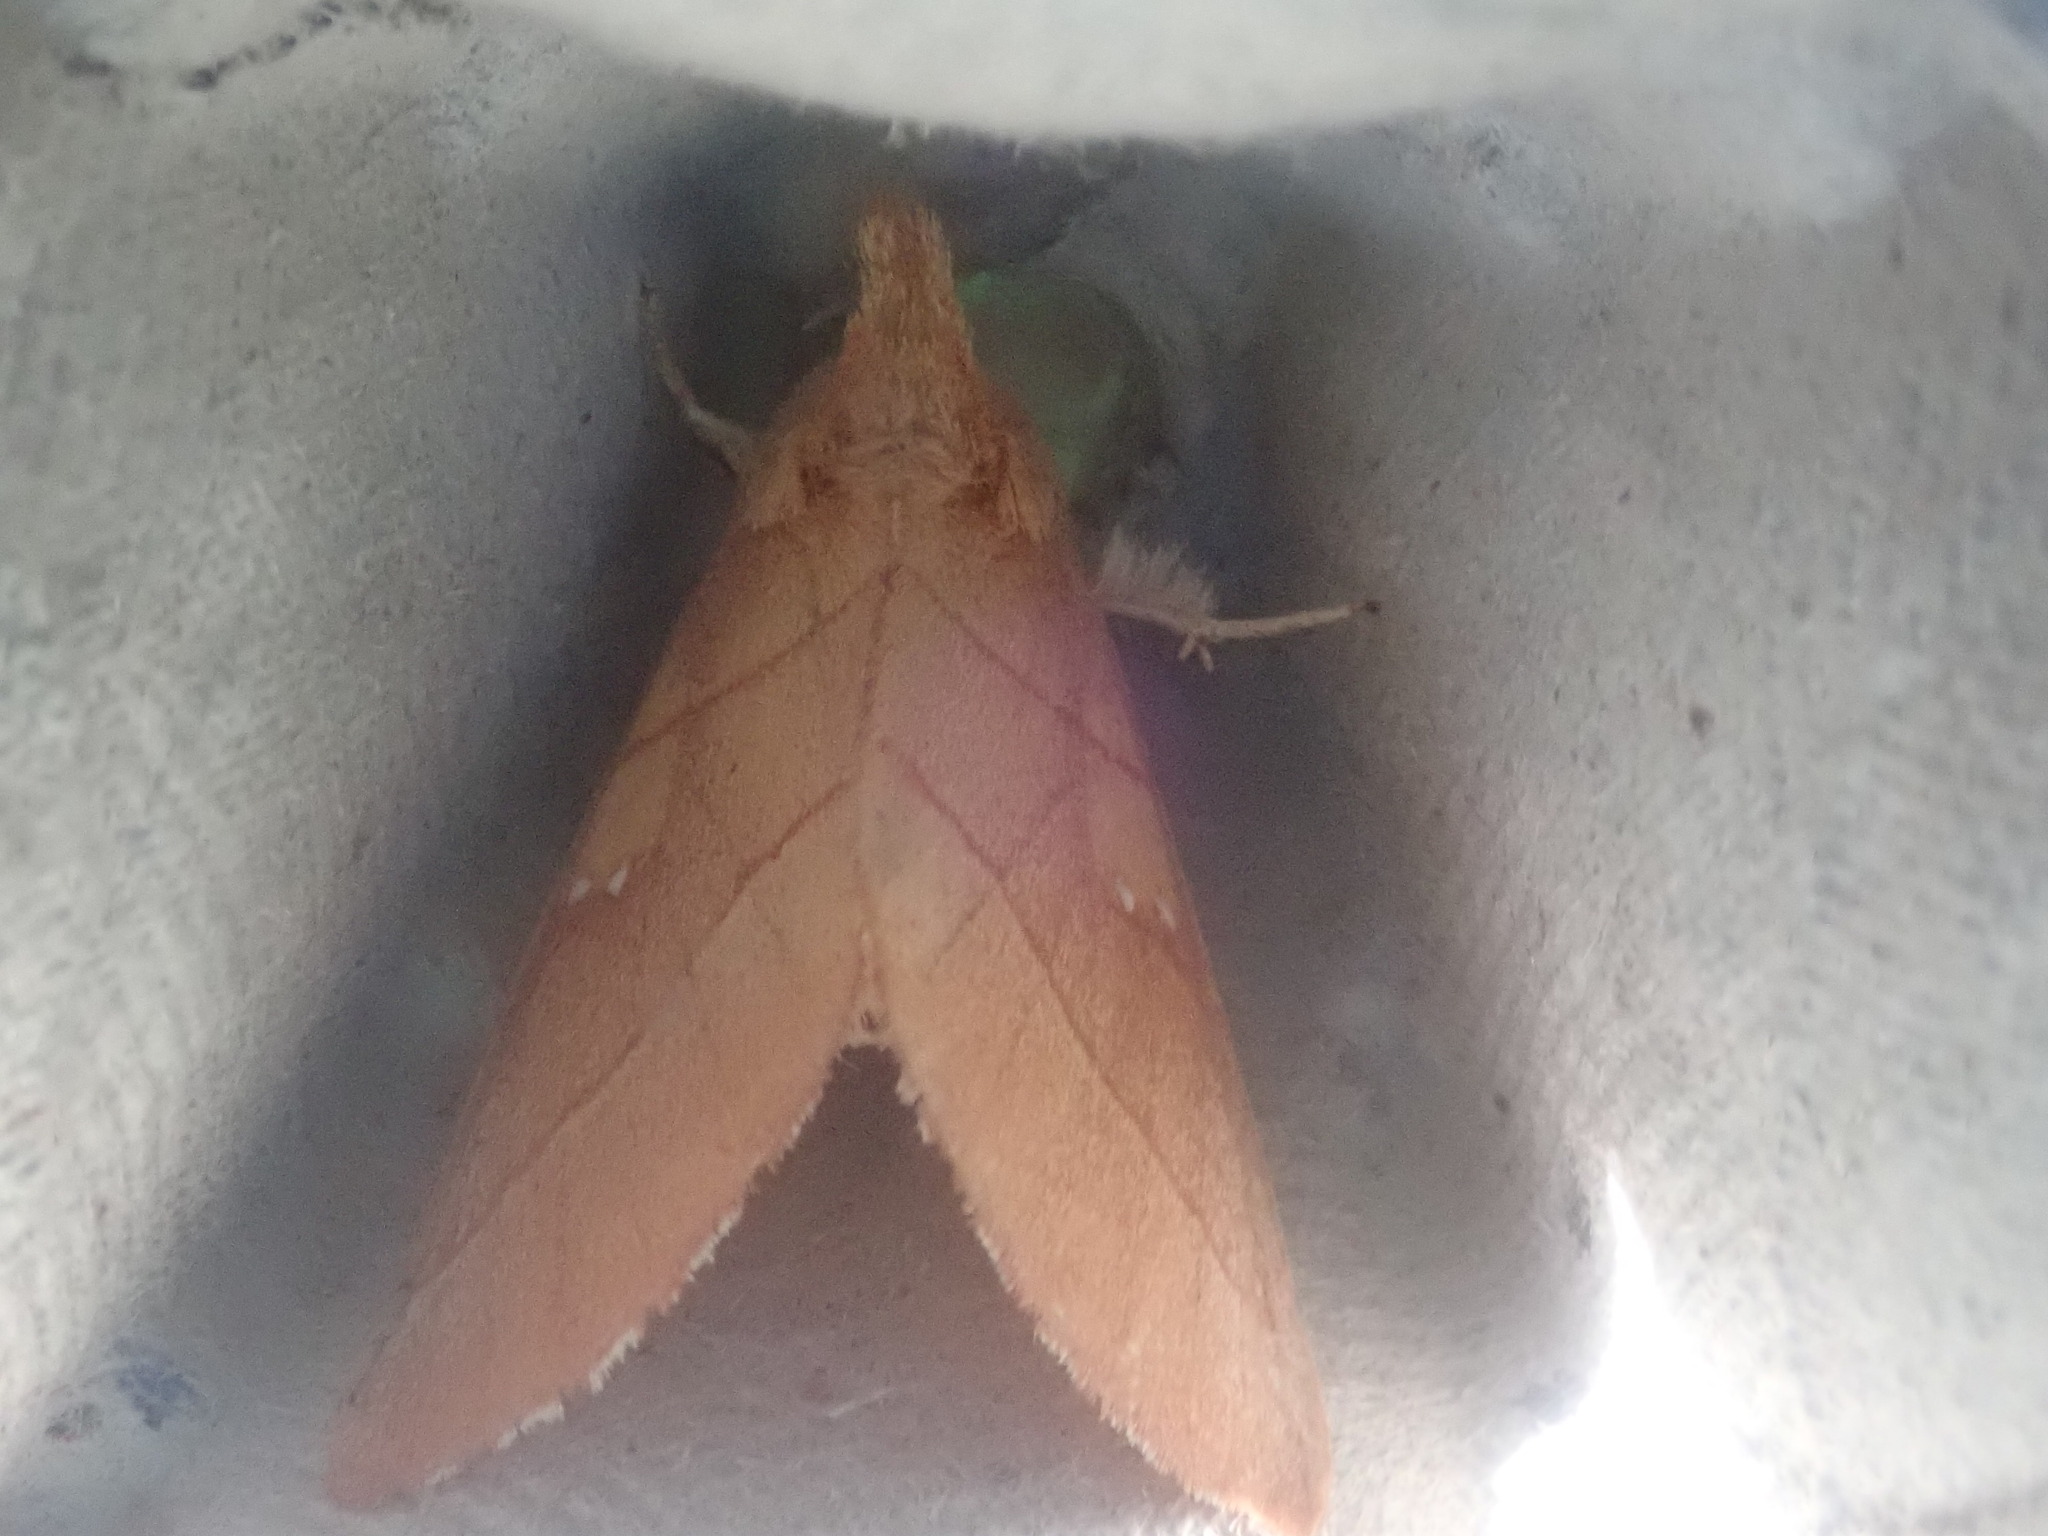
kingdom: Animalia
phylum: Arthropoda
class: Insecta
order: Lepidoptera
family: Notodontidae
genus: Nadata
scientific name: Nadata gibbosa
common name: White-dotted prominent
